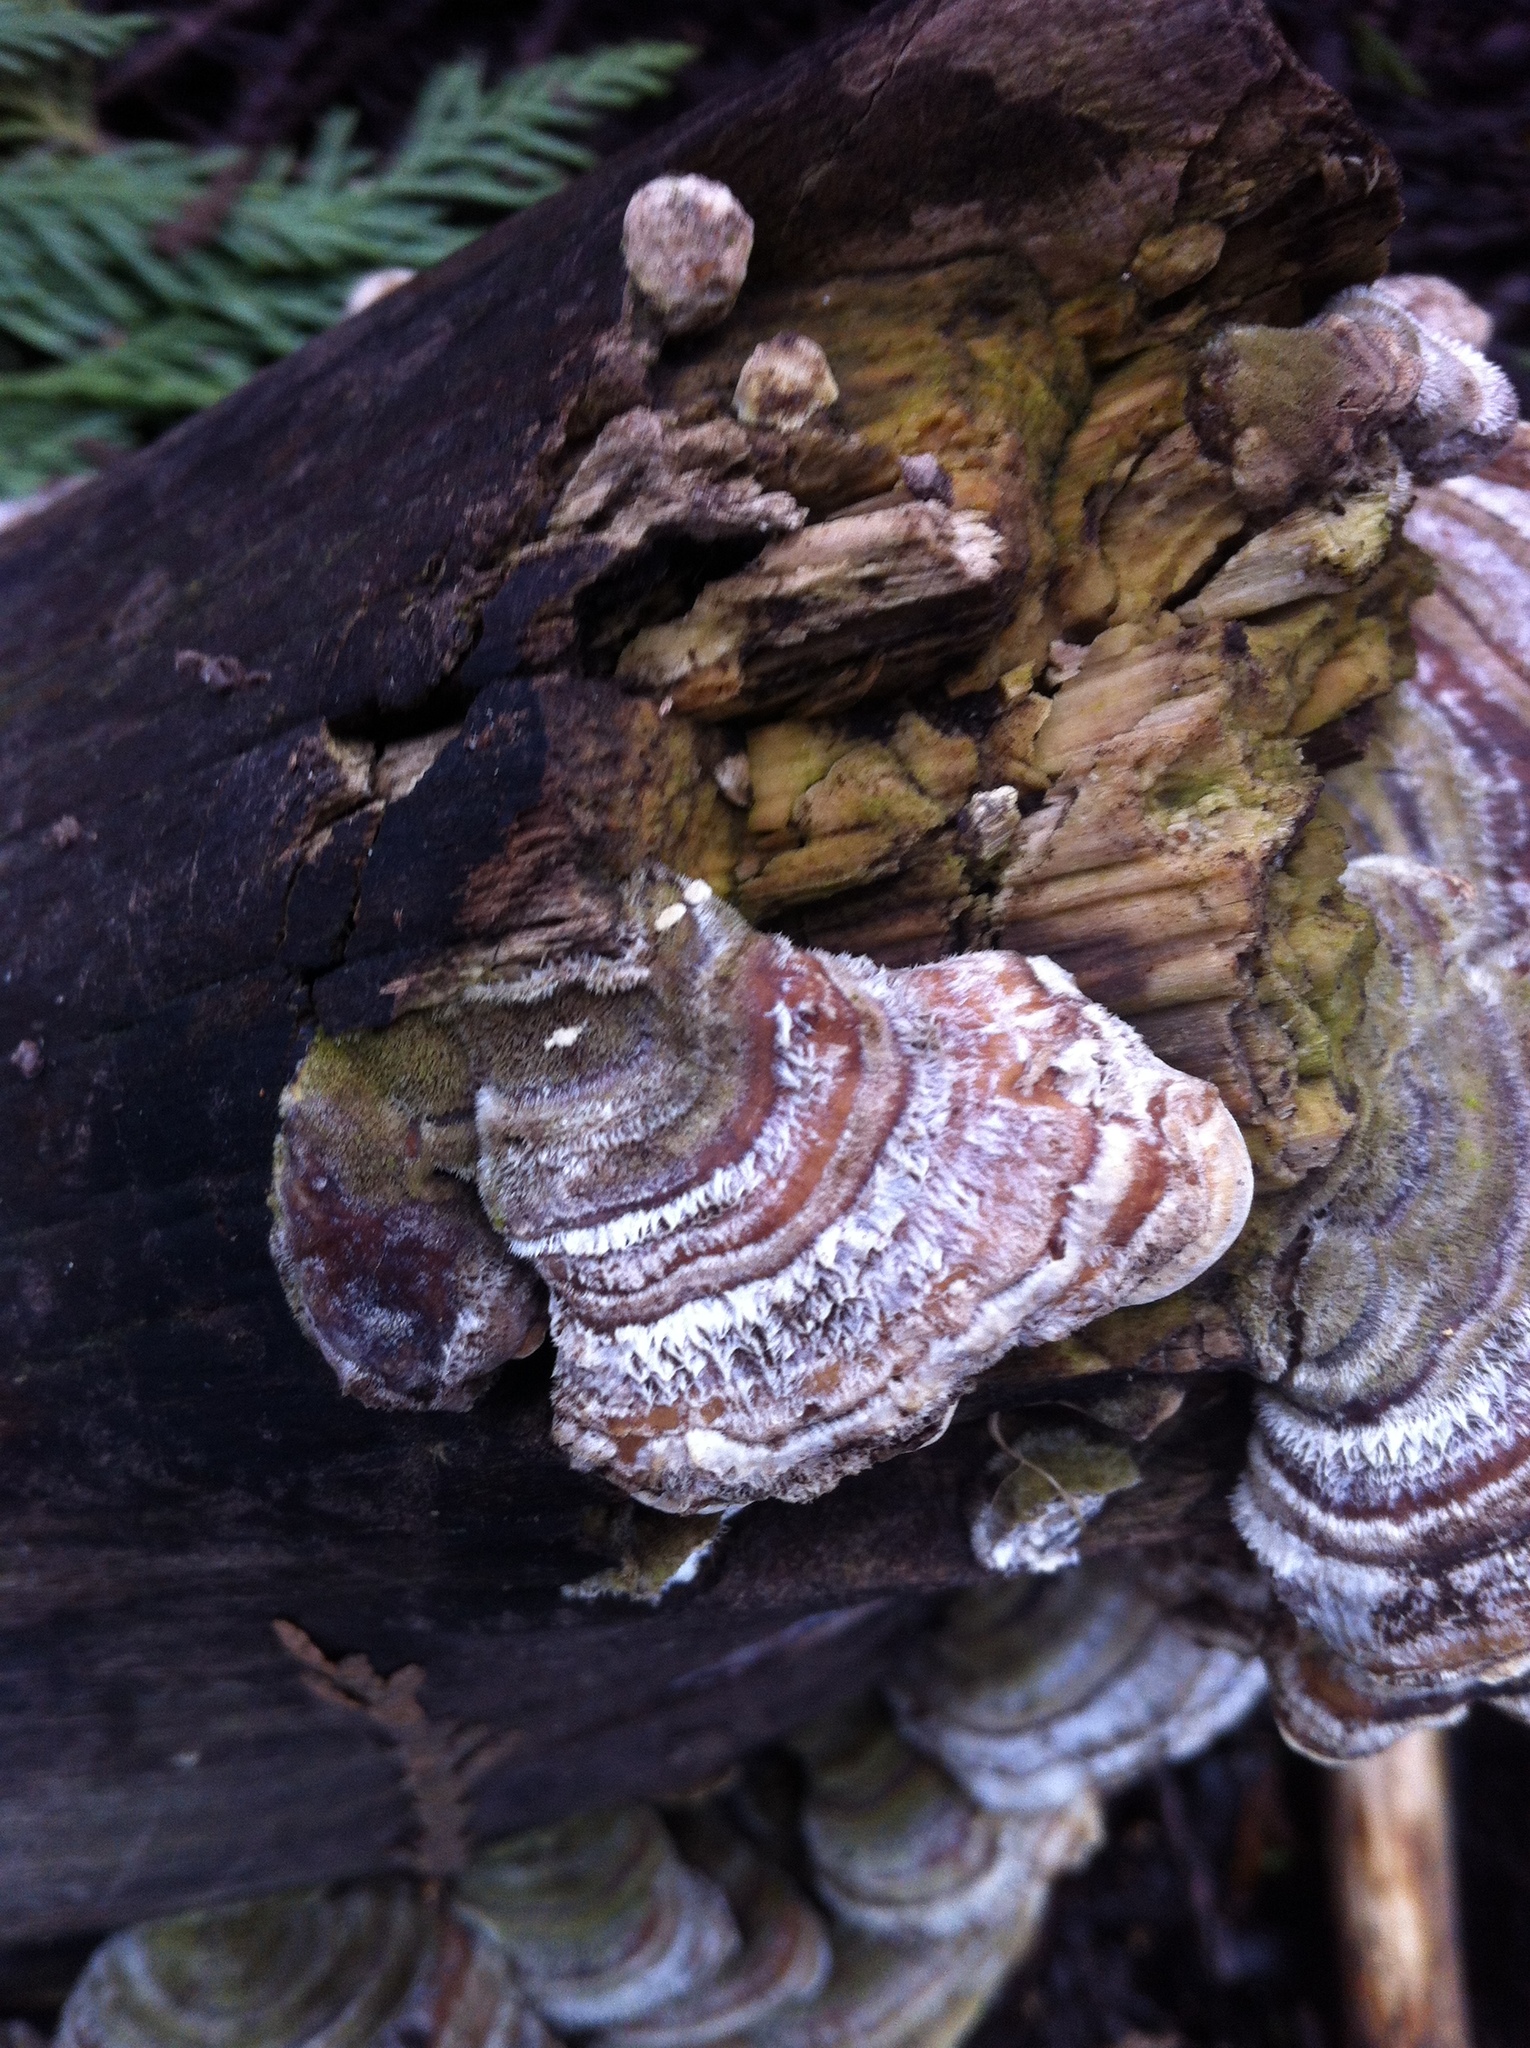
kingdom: Fungi
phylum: Basidiomycota
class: Agaricomycetes
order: Polyporales
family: Polyporaceae
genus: Trametes
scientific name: Trametes versicolor
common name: Turkeytail
